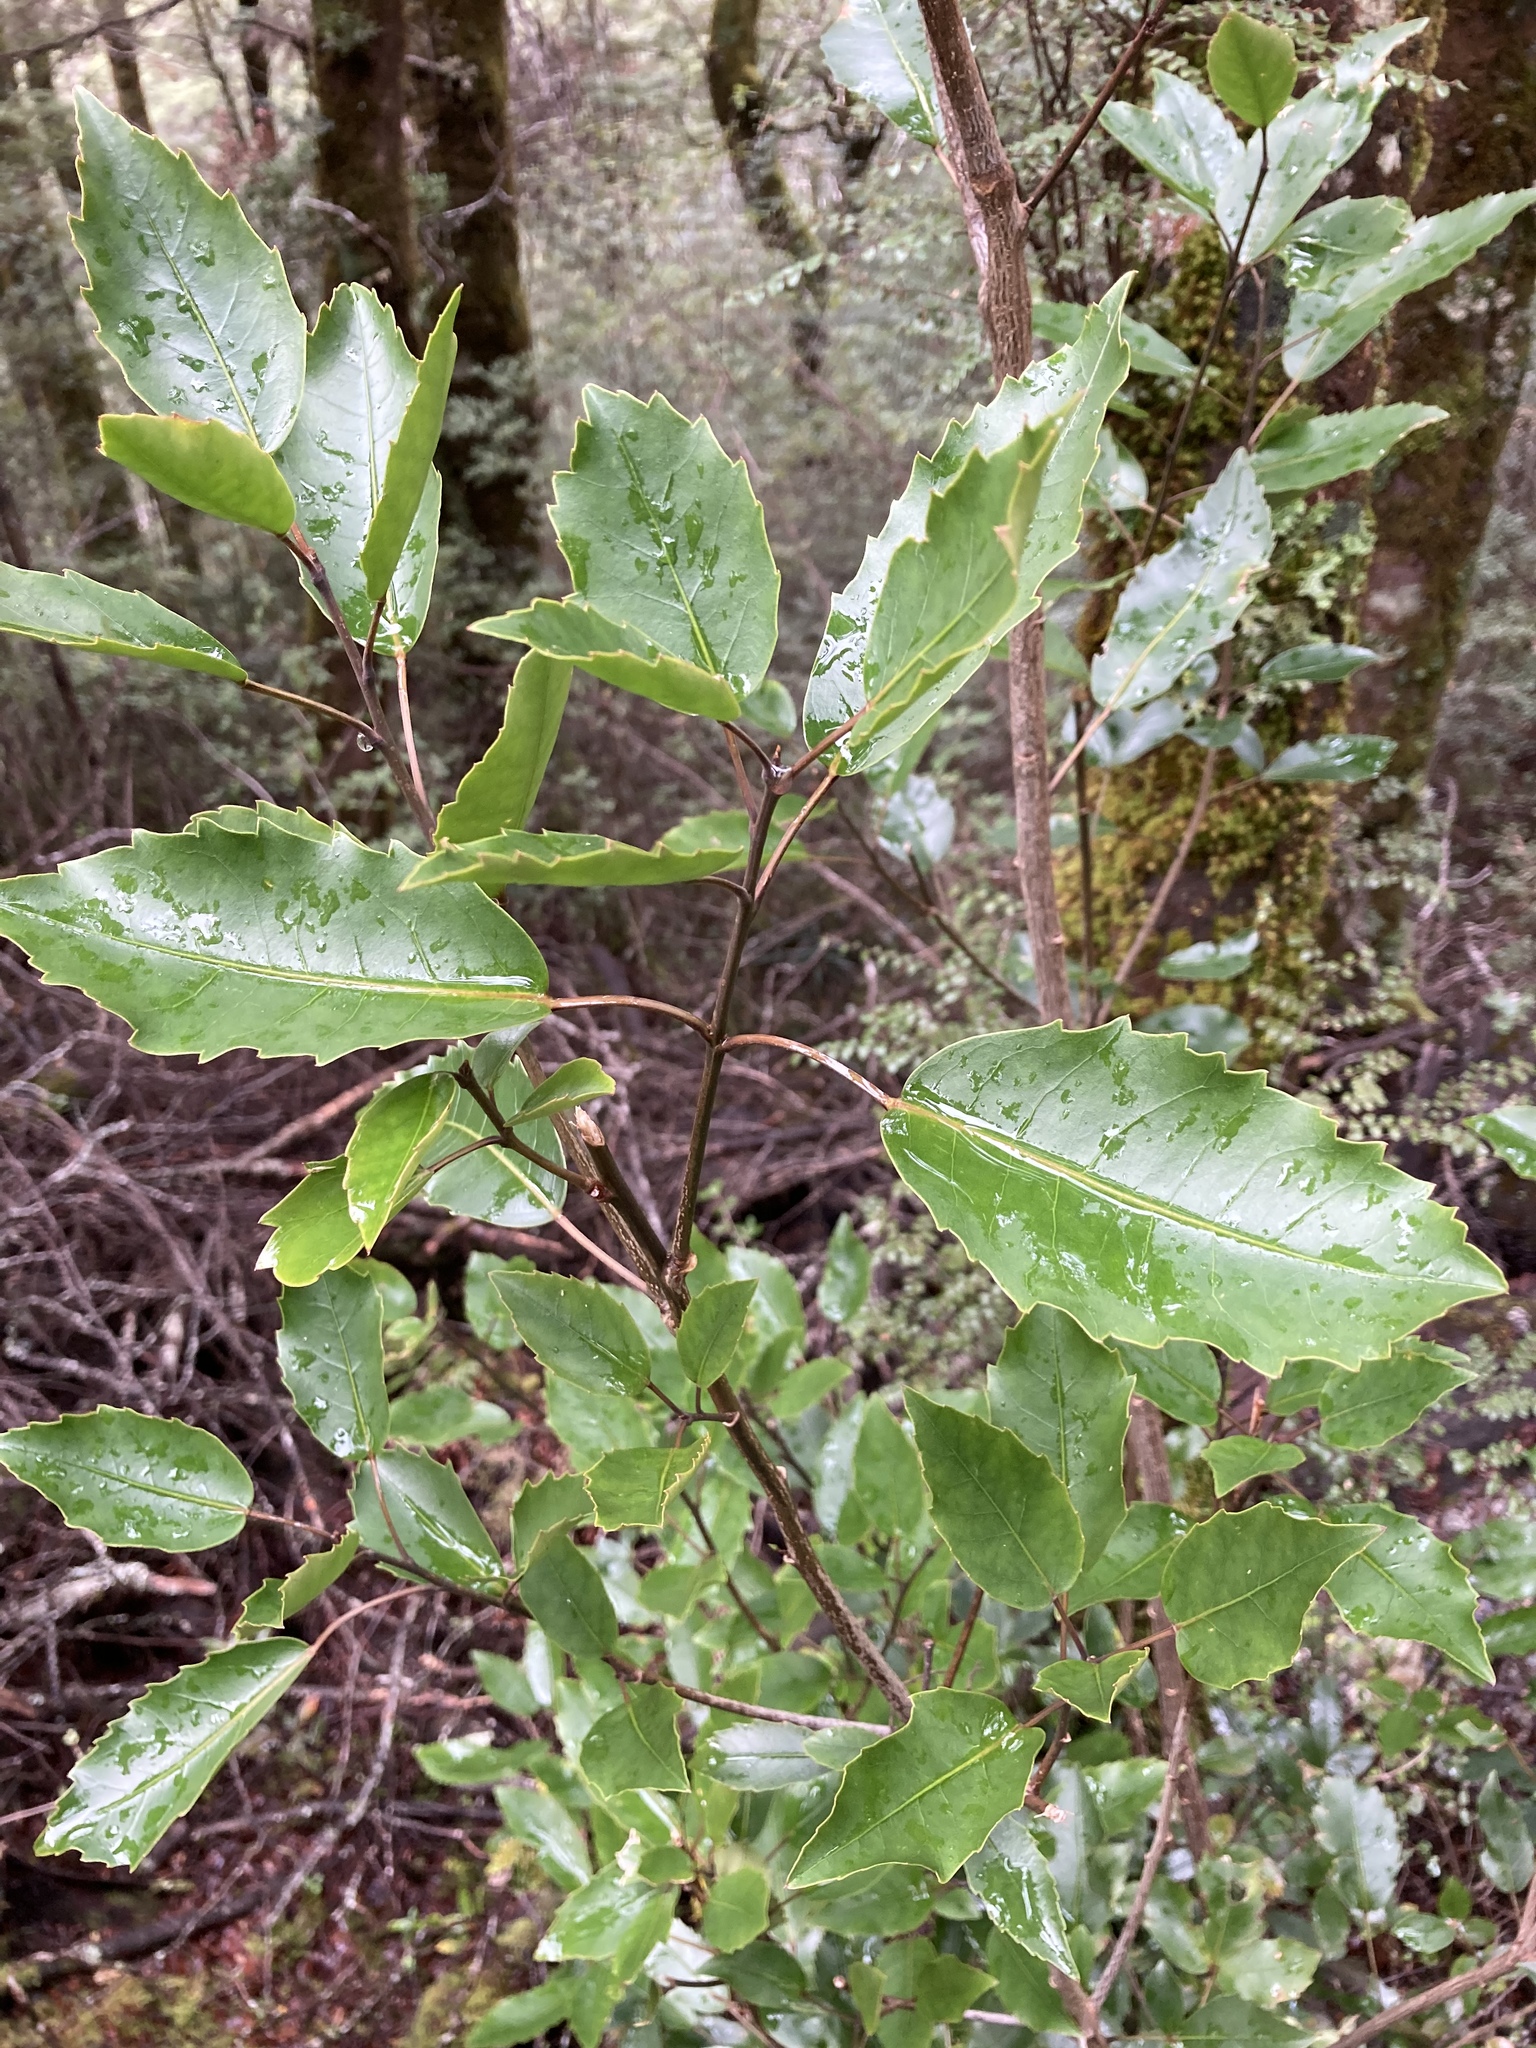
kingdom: Plantae
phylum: Tracheophyta
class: Magnoliopsida
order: Apiales
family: Araliaceae
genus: Raukaua
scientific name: Raukaua simplex
